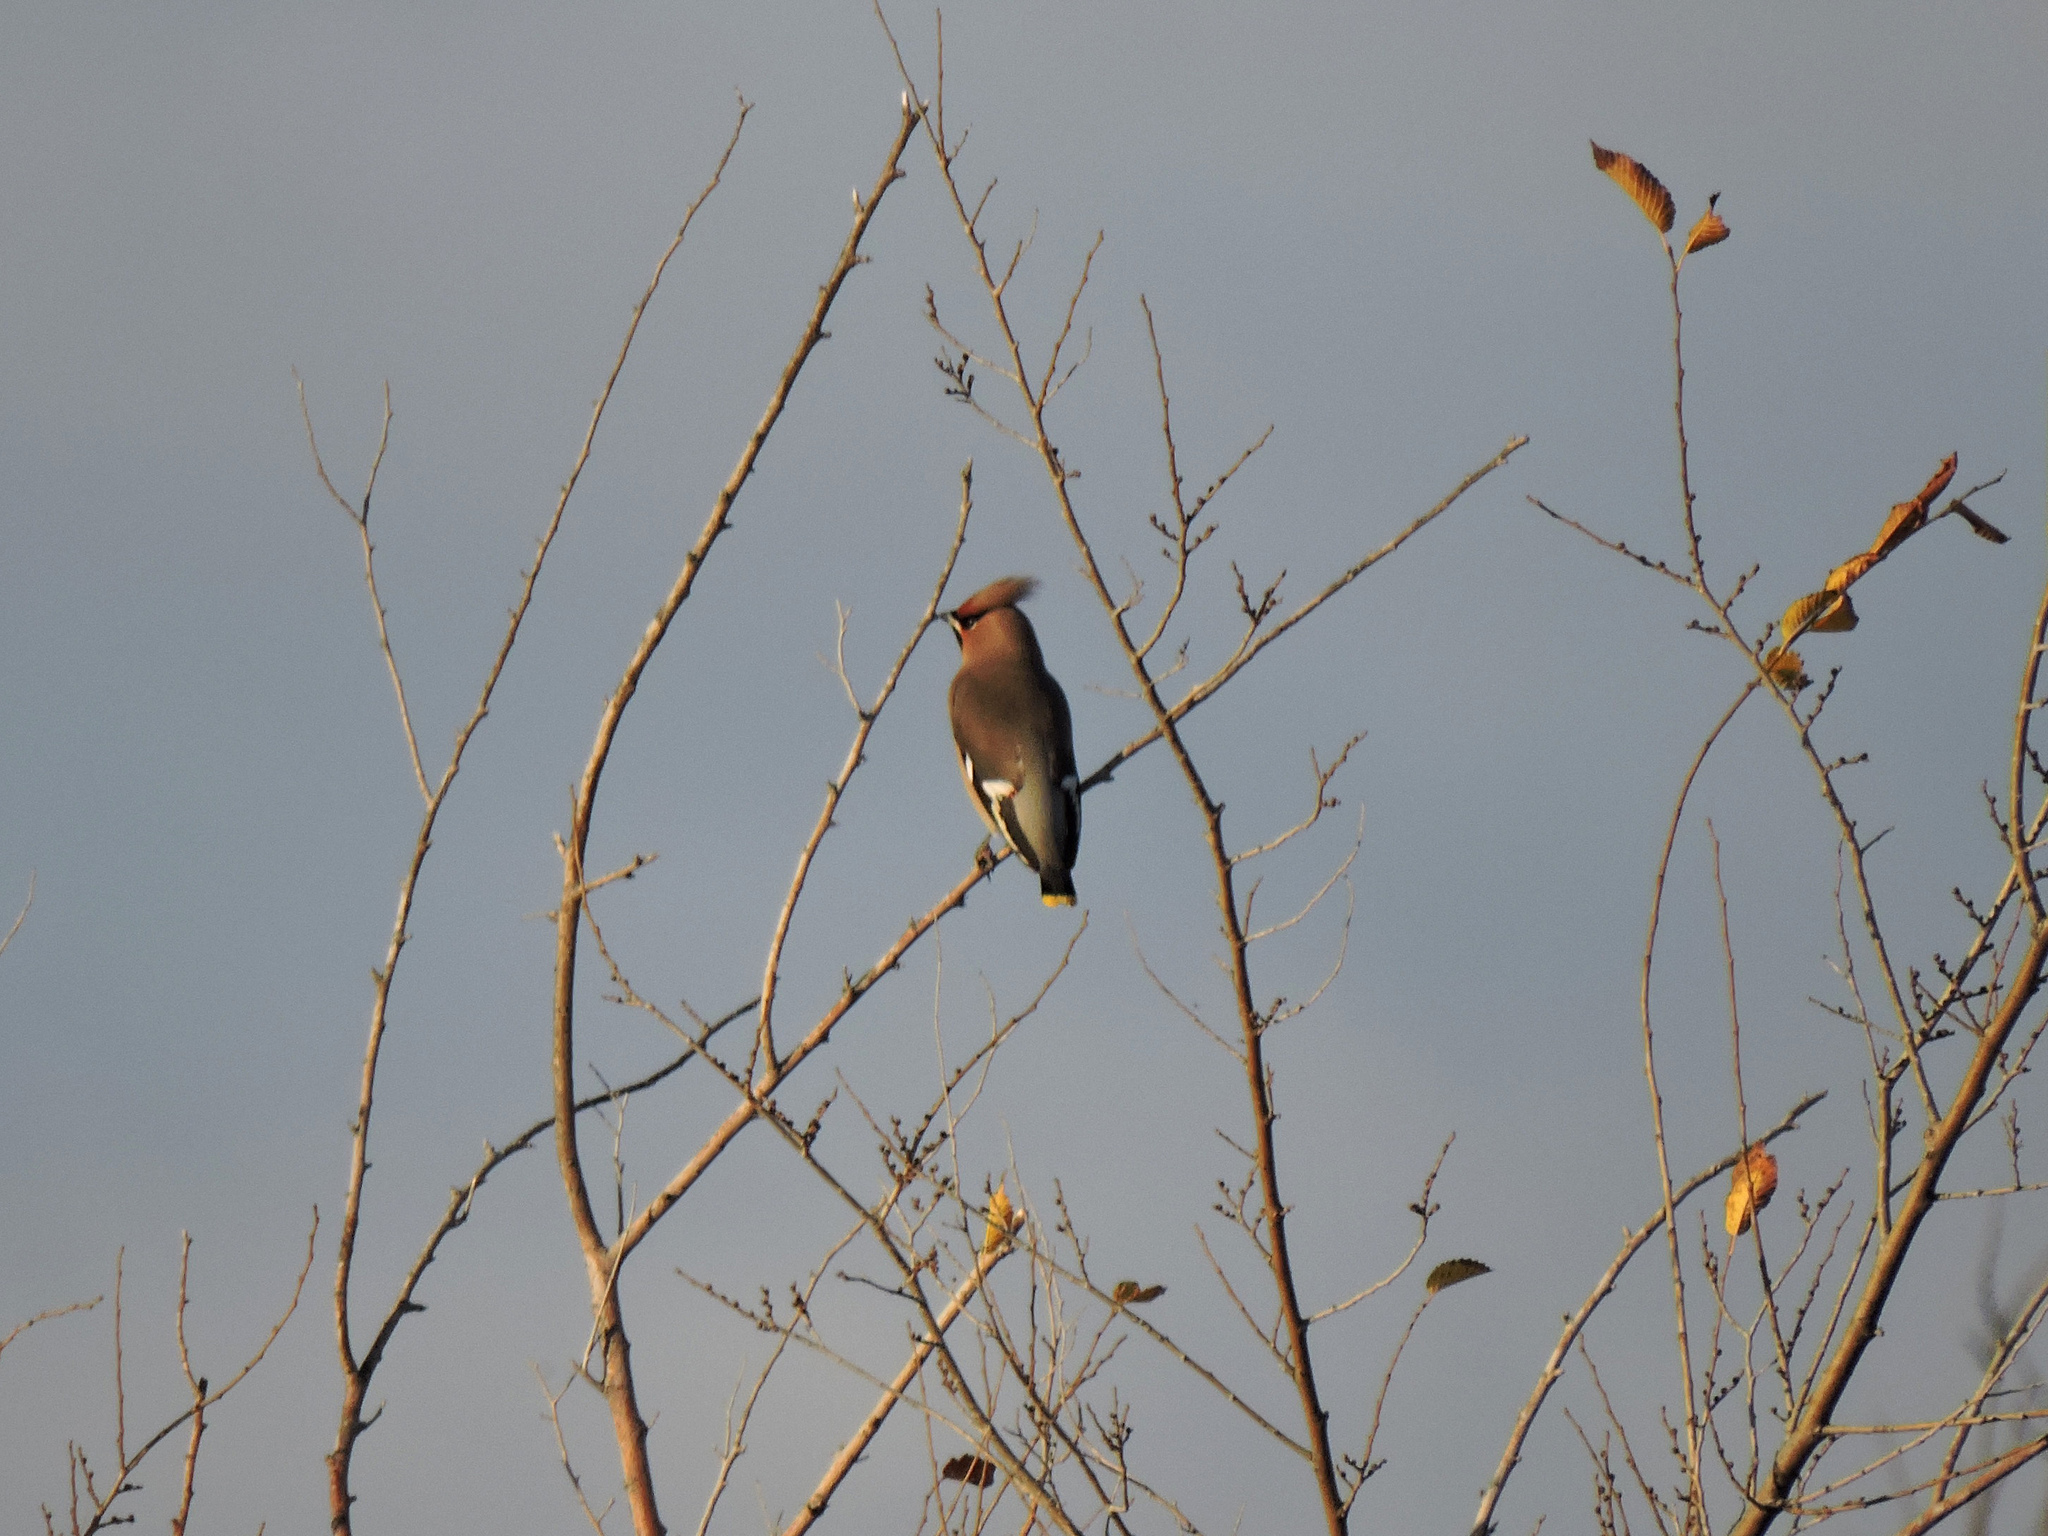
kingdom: Animalia
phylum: Chordata
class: Aves
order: Passeriformes
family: Bombycillidae
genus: Bombycilla
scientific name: Bombycilla garrulus
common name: Bohemian waxwing
